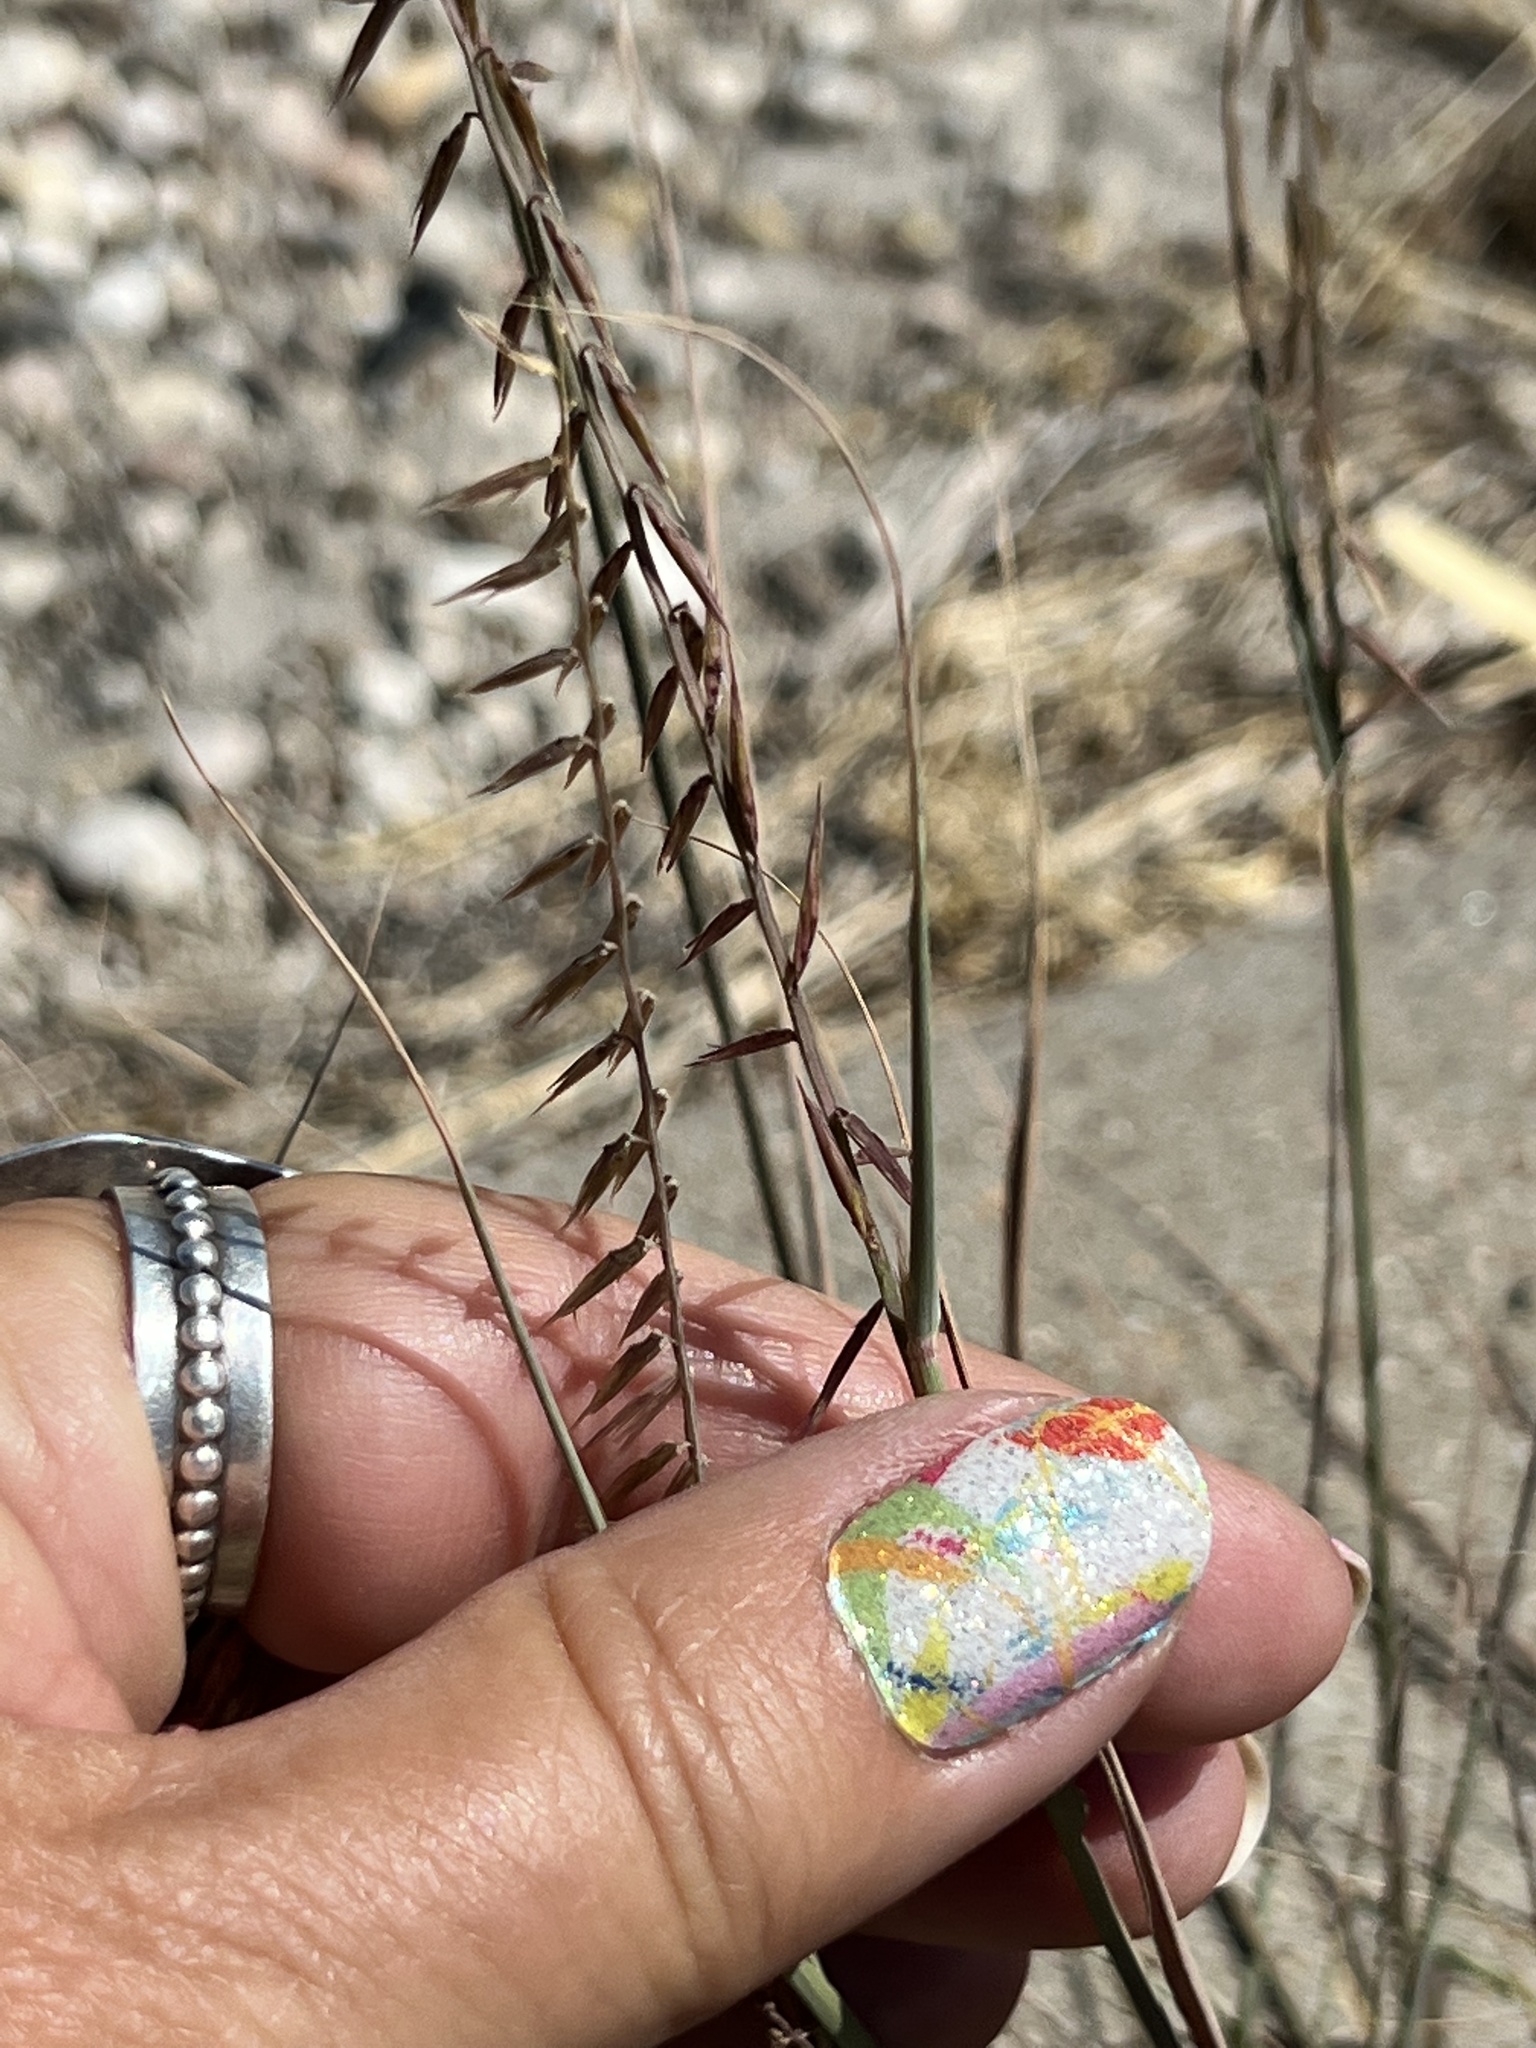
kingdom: Plantae
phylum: Tracheophyta
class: Liliopsida
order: Poales
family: Poaceae
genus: Bouteloua
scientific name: Bouteloua curtipendula
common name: Side-oats grama
